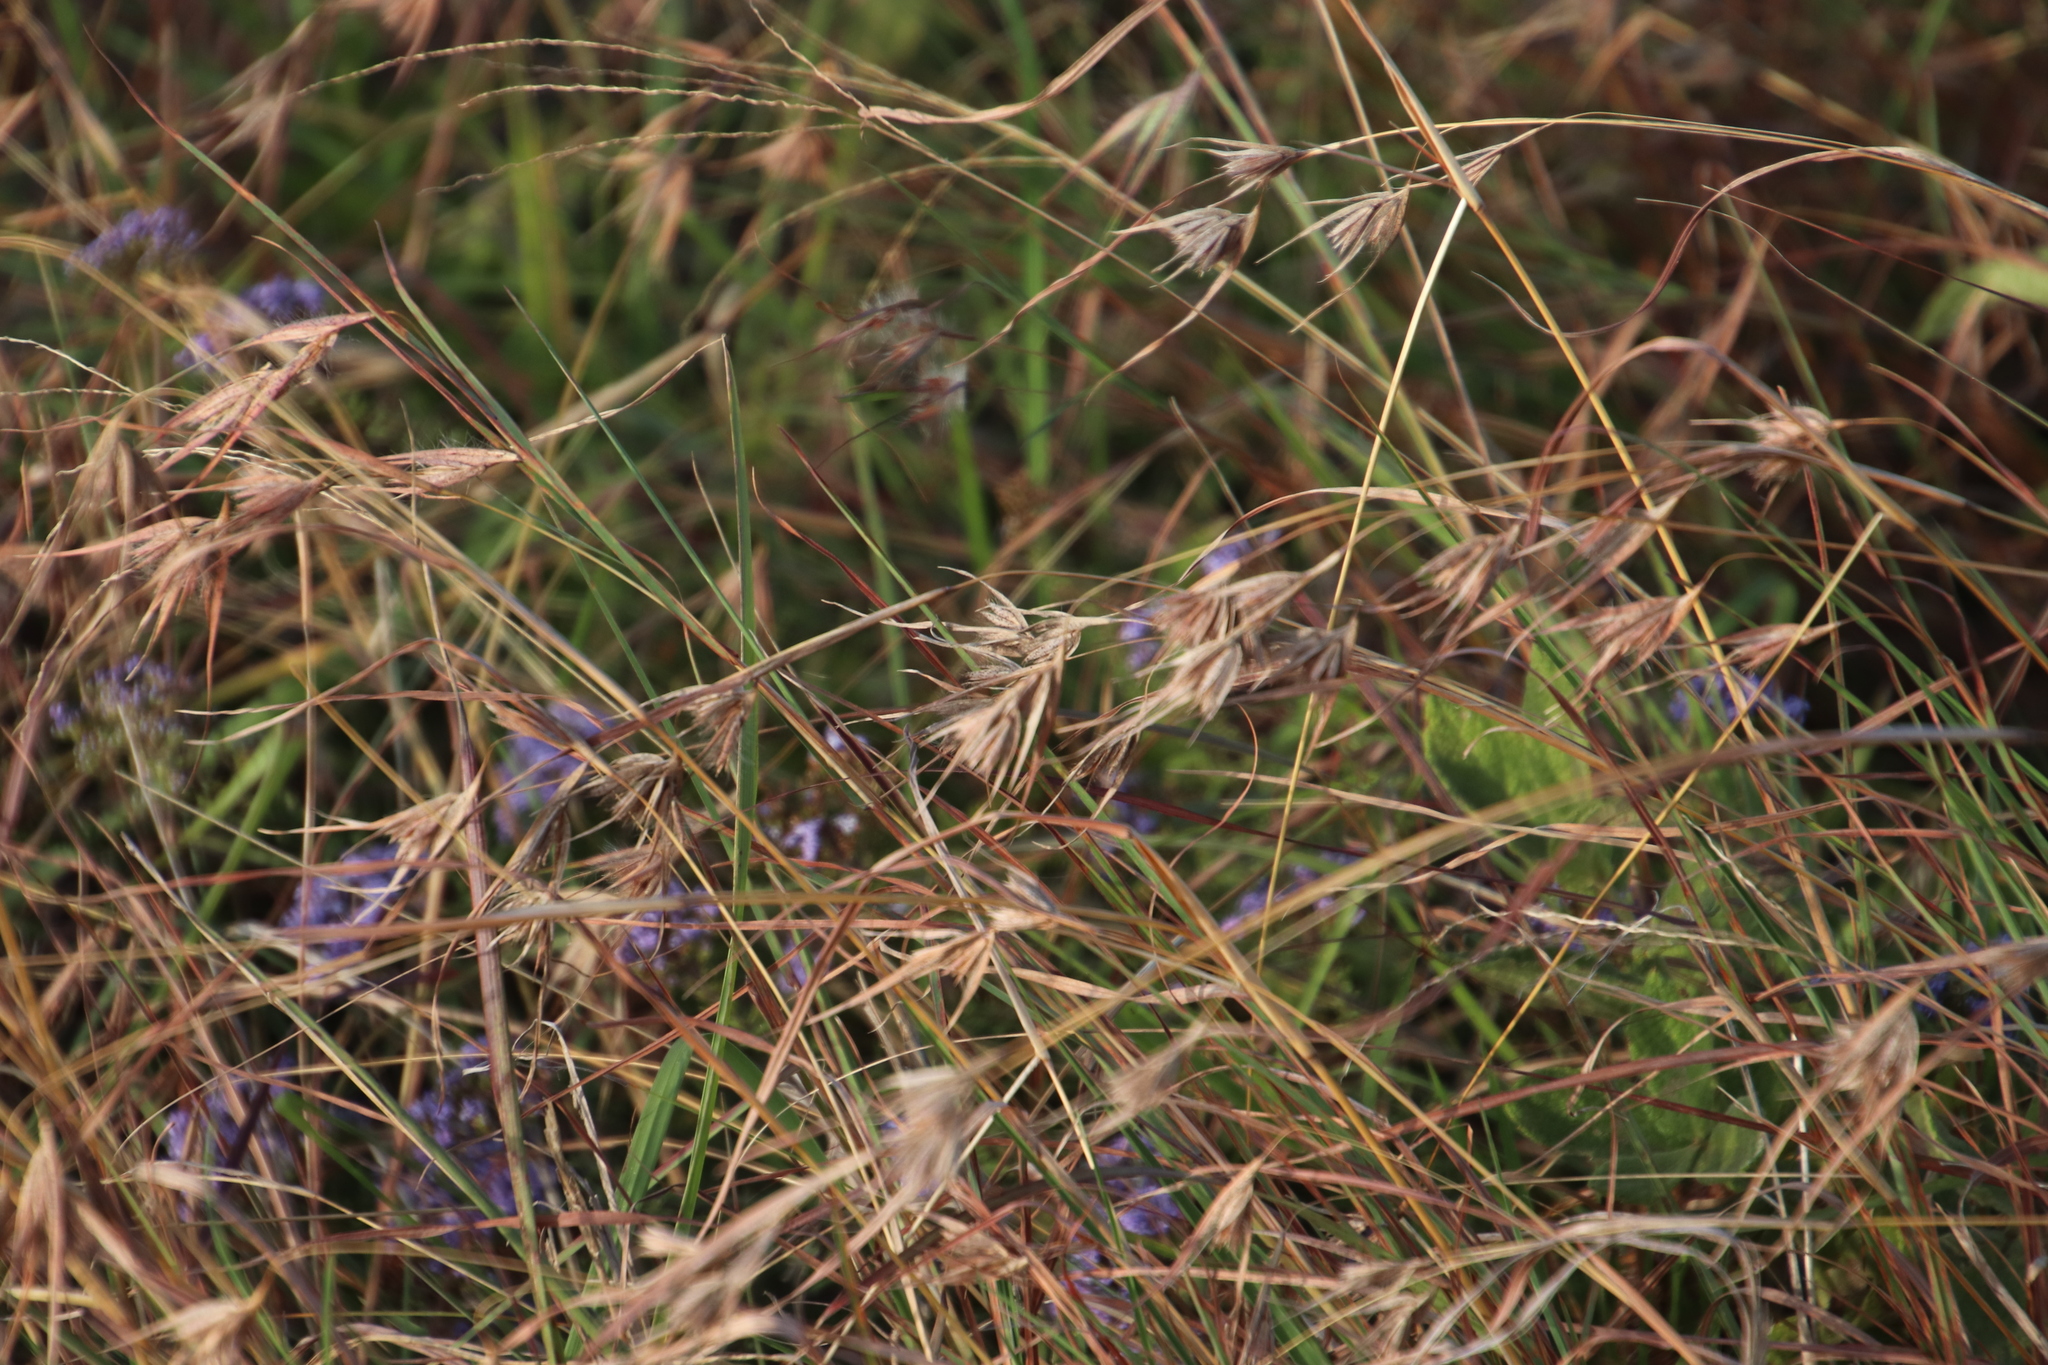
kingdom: Plantae
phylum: Tracheophyta
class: Liliopsida
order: Poales
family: Poaceae
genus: Themeda
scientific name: Themeda triandra
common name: Kangaroo grass
